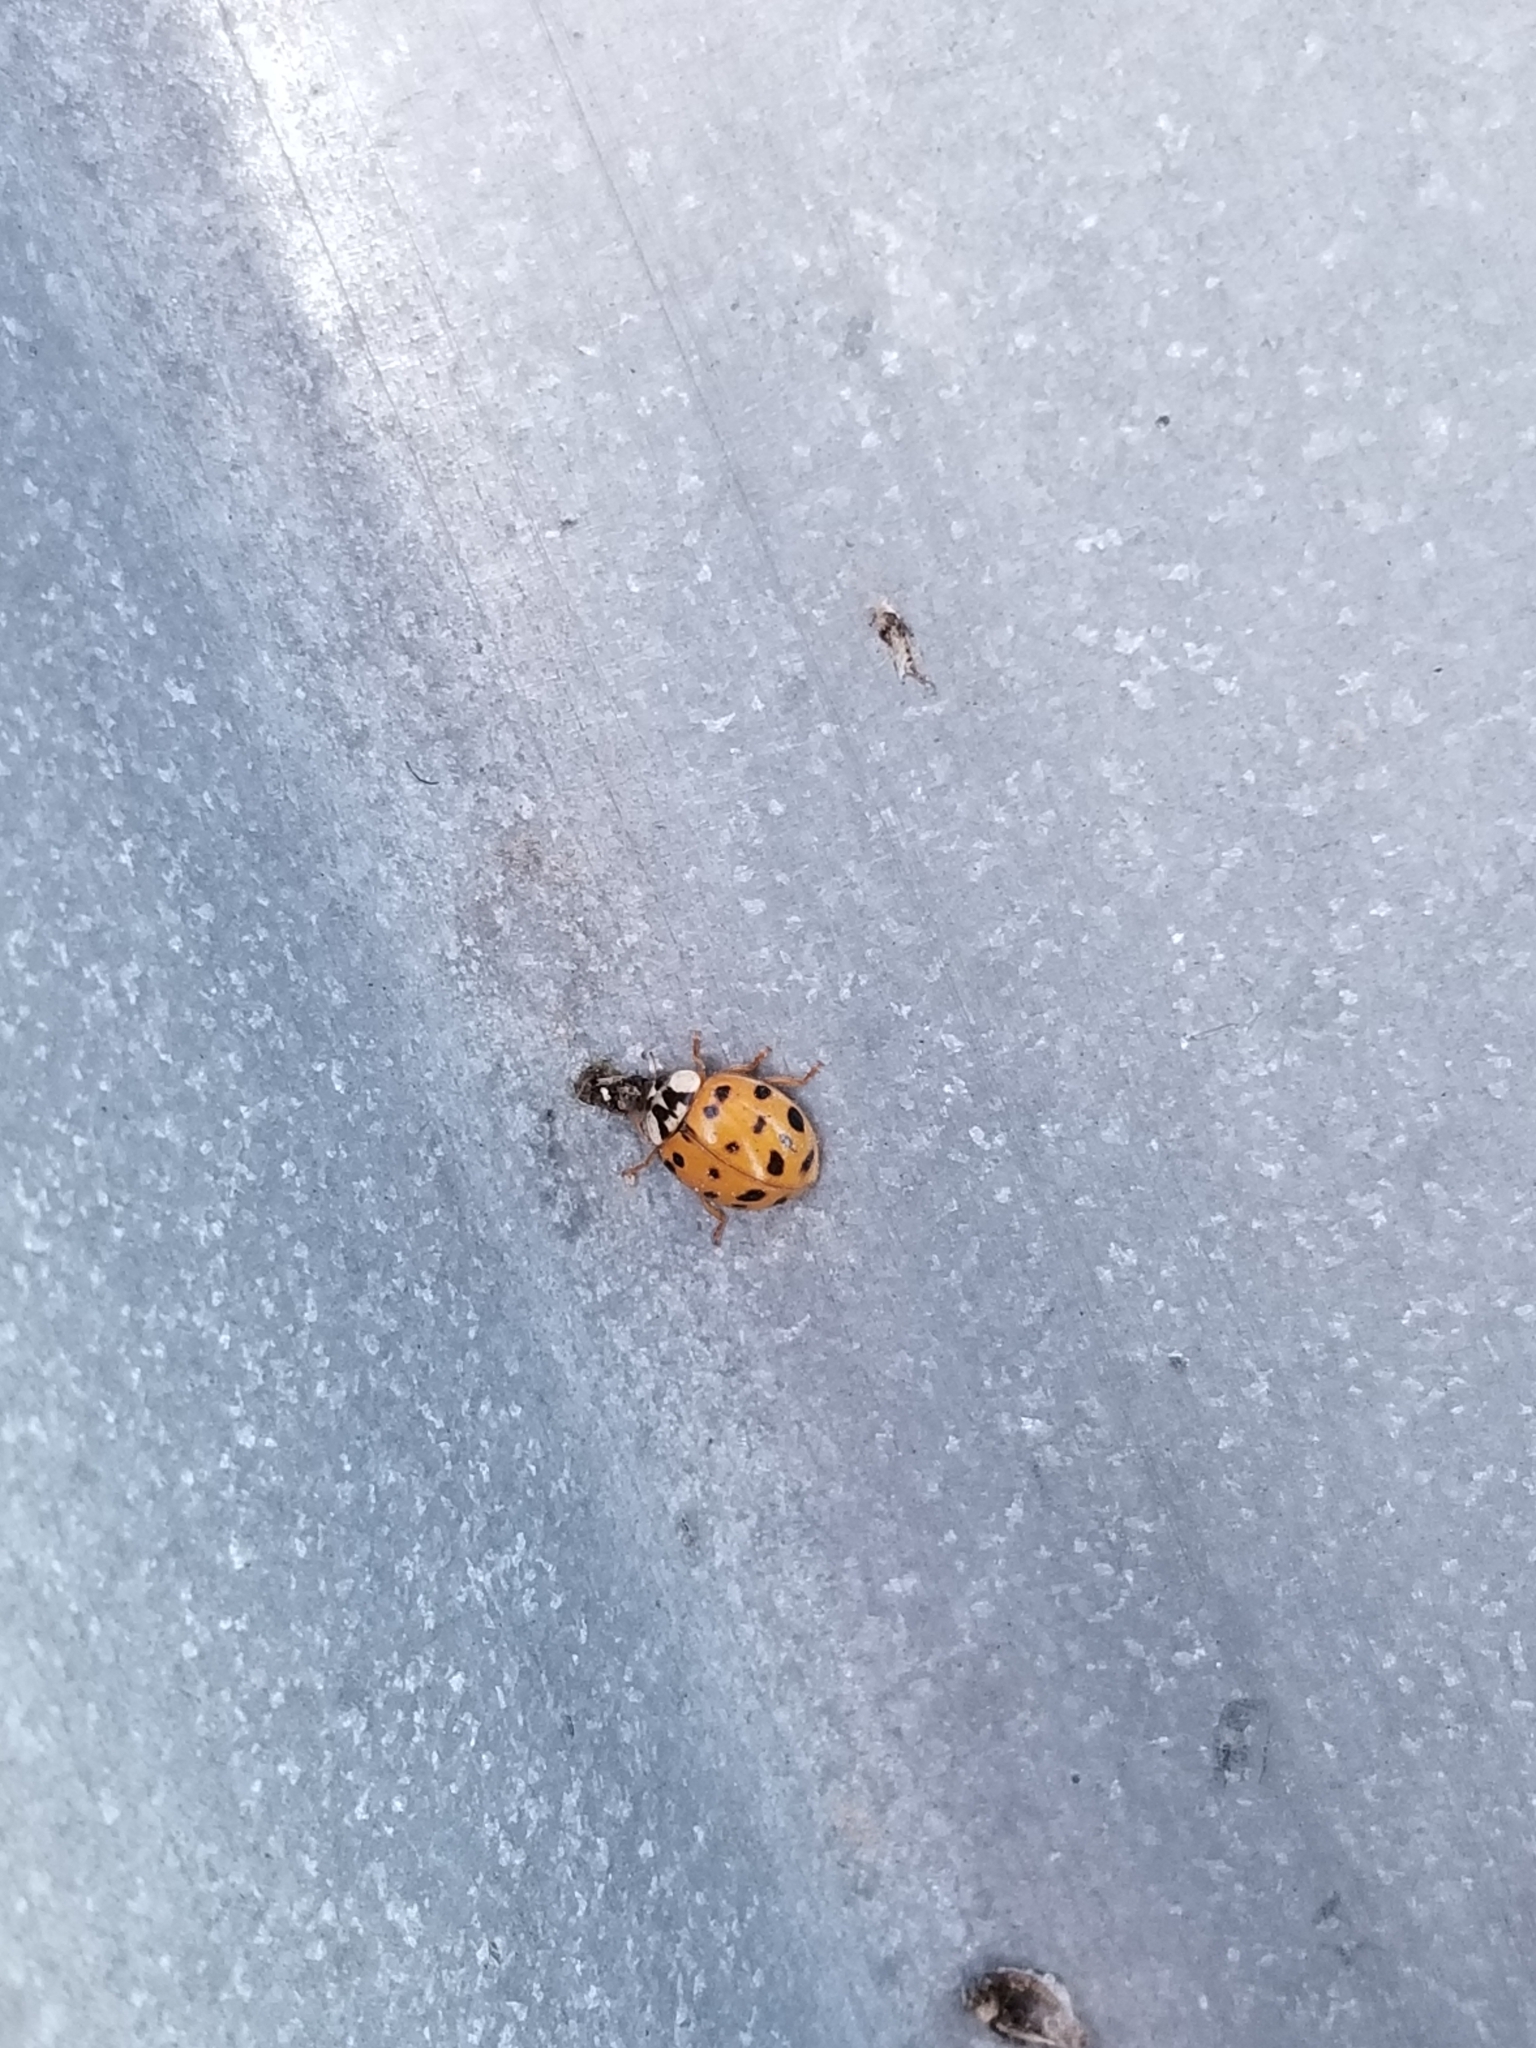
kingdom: Animalia
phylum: Arthropoda
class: Insecta
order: Coleoptera
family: Coccinellidae
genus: Harmonia
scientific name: Harmonia axyridis
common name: Harlequin ladybird
